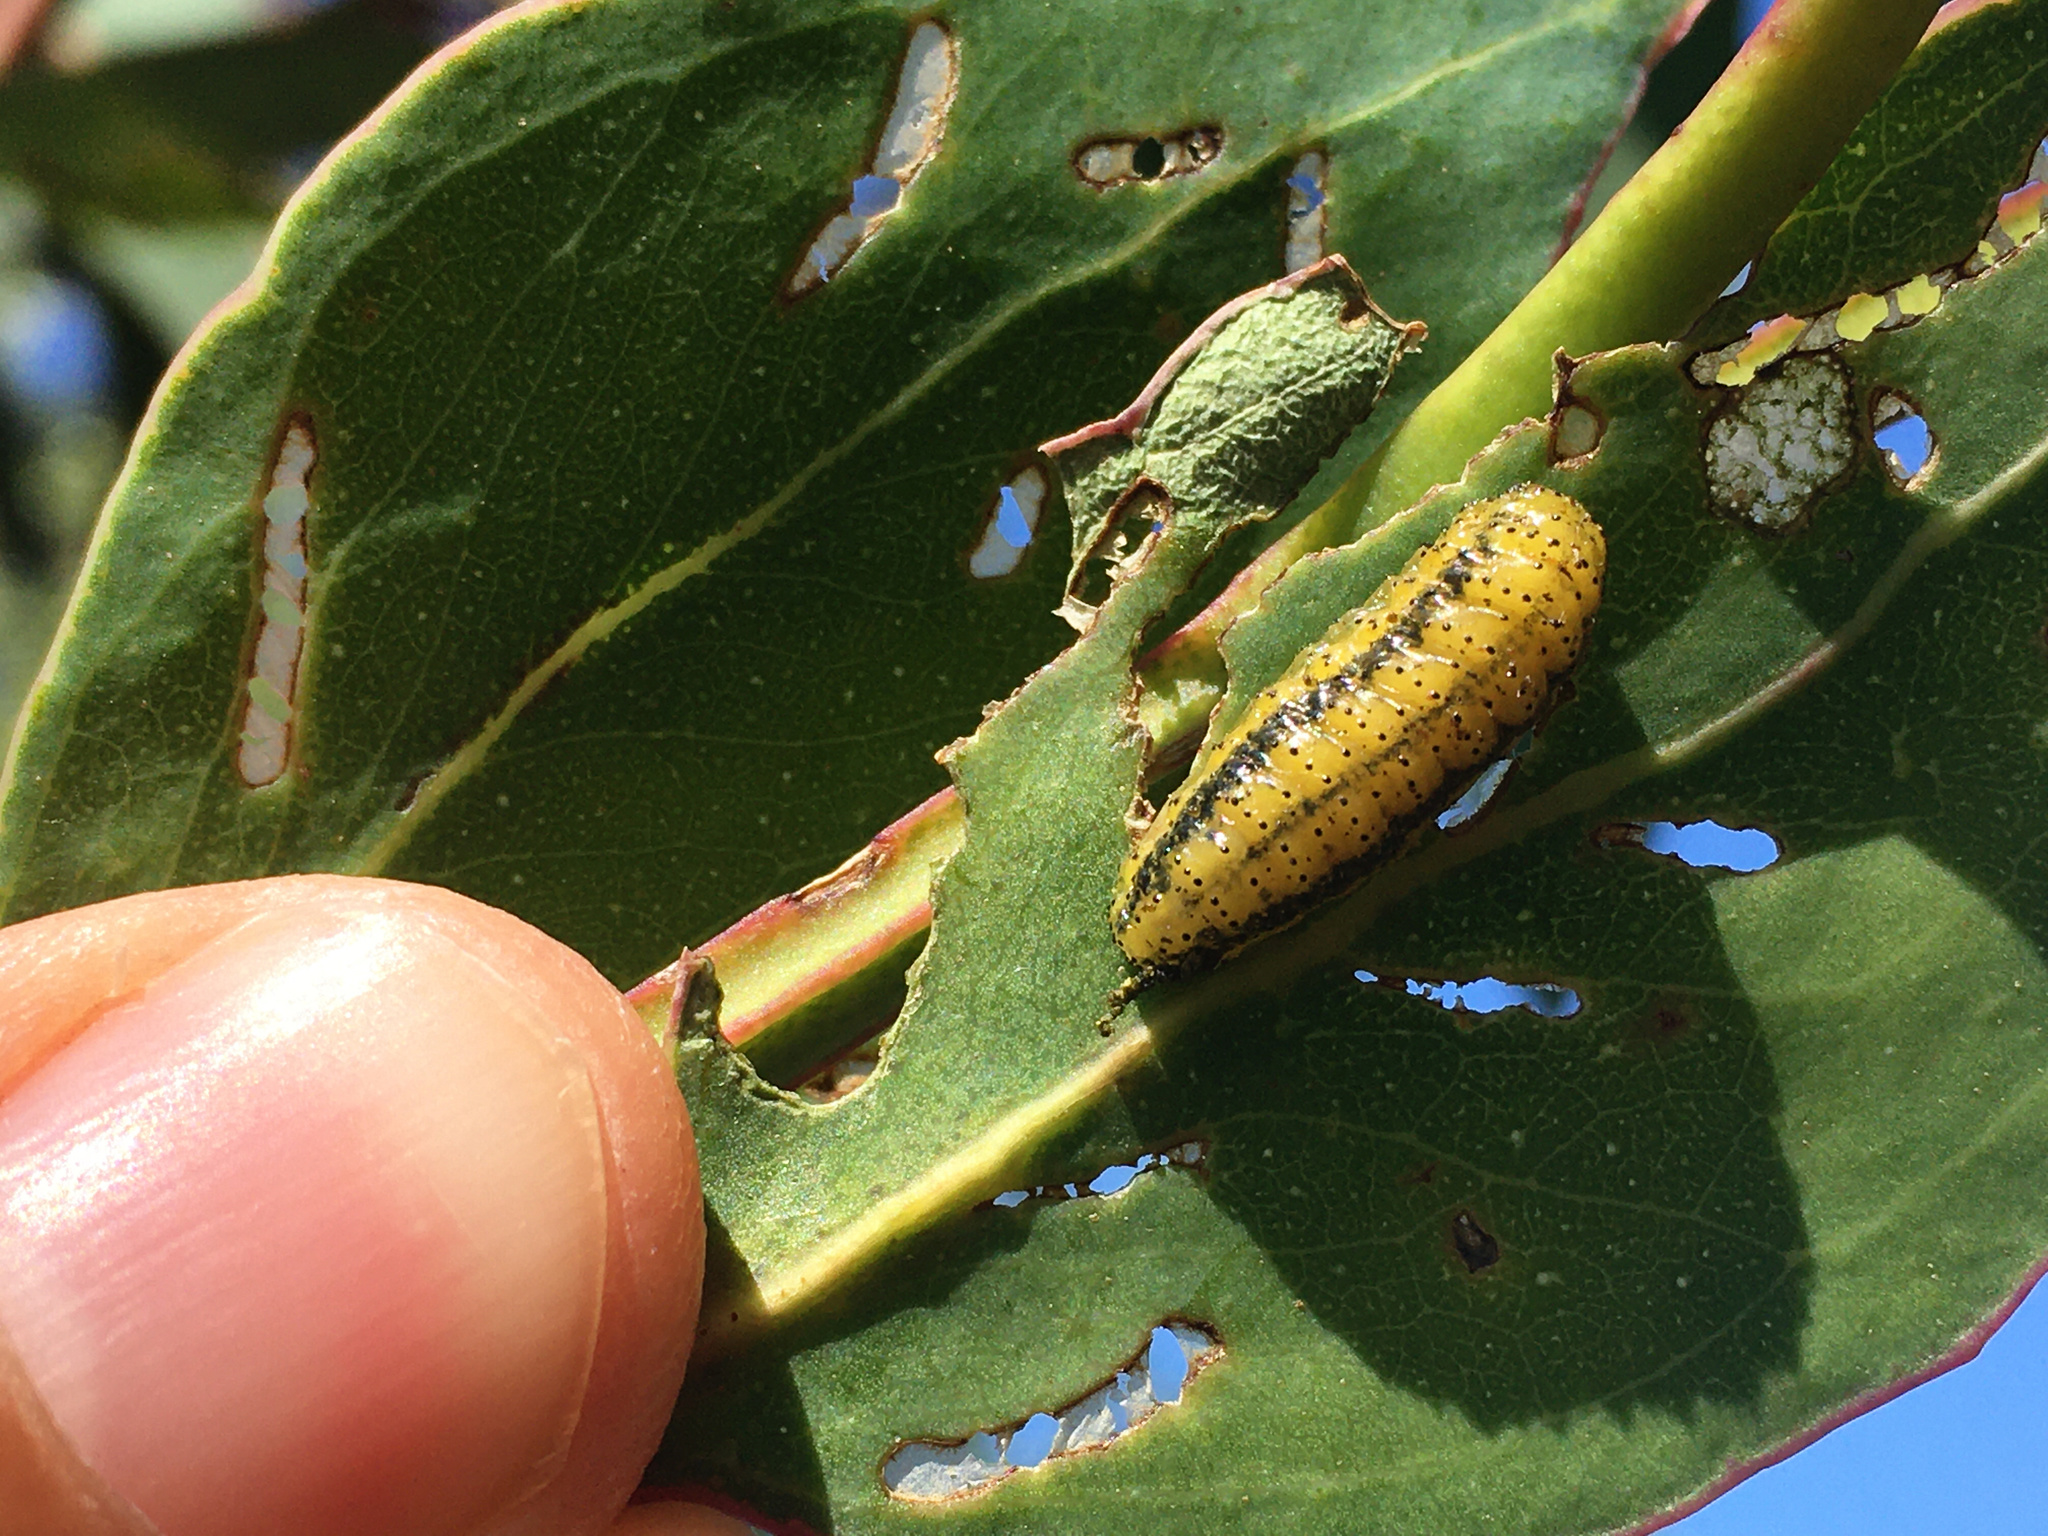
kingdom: Animalia
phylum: Arthropoda
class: Insecta
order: Coleoptera
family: Curculionidae
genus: Gonipterus
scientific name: Gonipterus platensis
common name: Eucalyptus snout beetle
